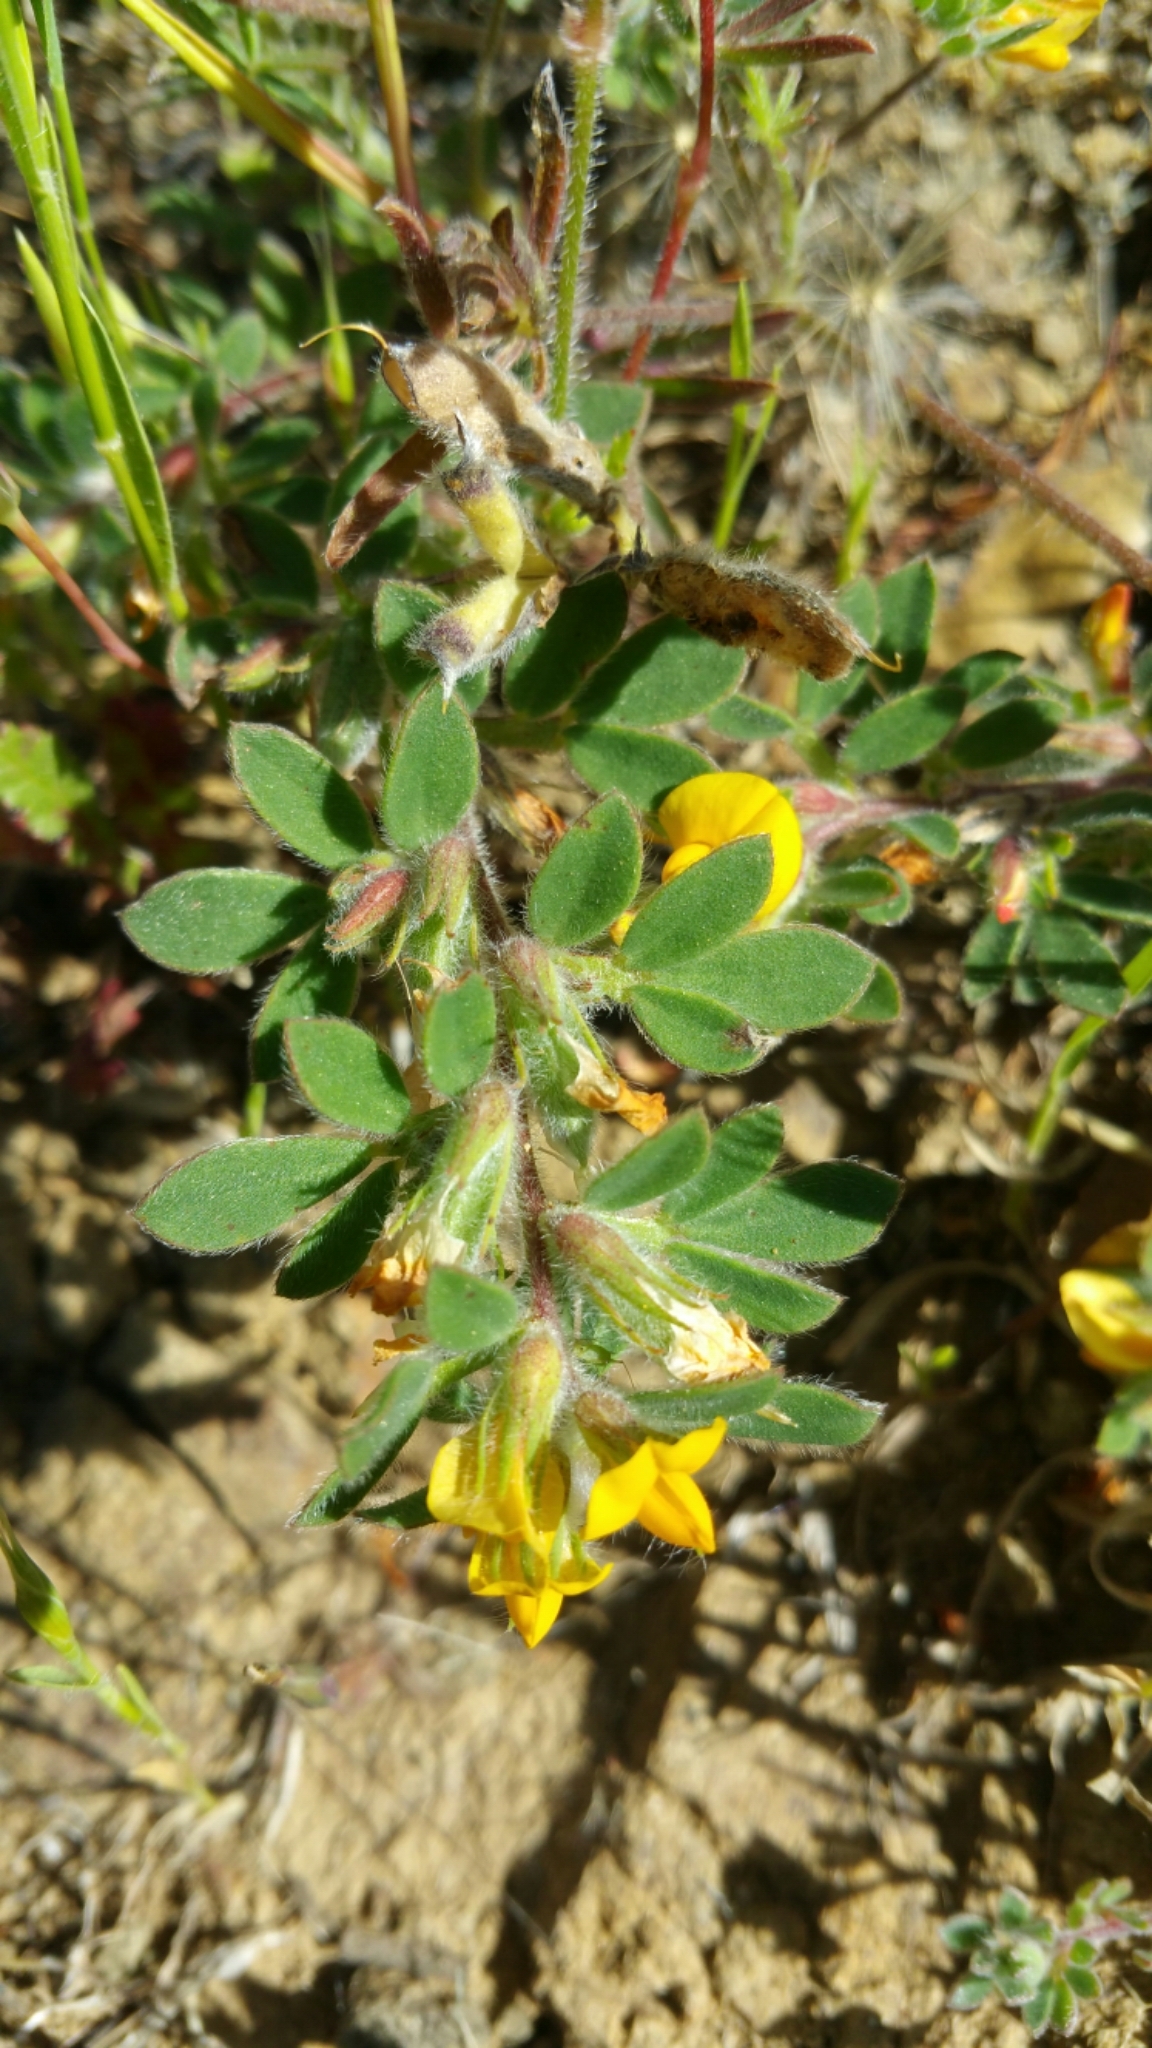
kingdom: Plantae
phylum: Tracheophyta
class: Magnoliopsida
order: Fabales
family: Fabaceae
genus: Acmispon
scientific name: Acmispon brachycarpus
